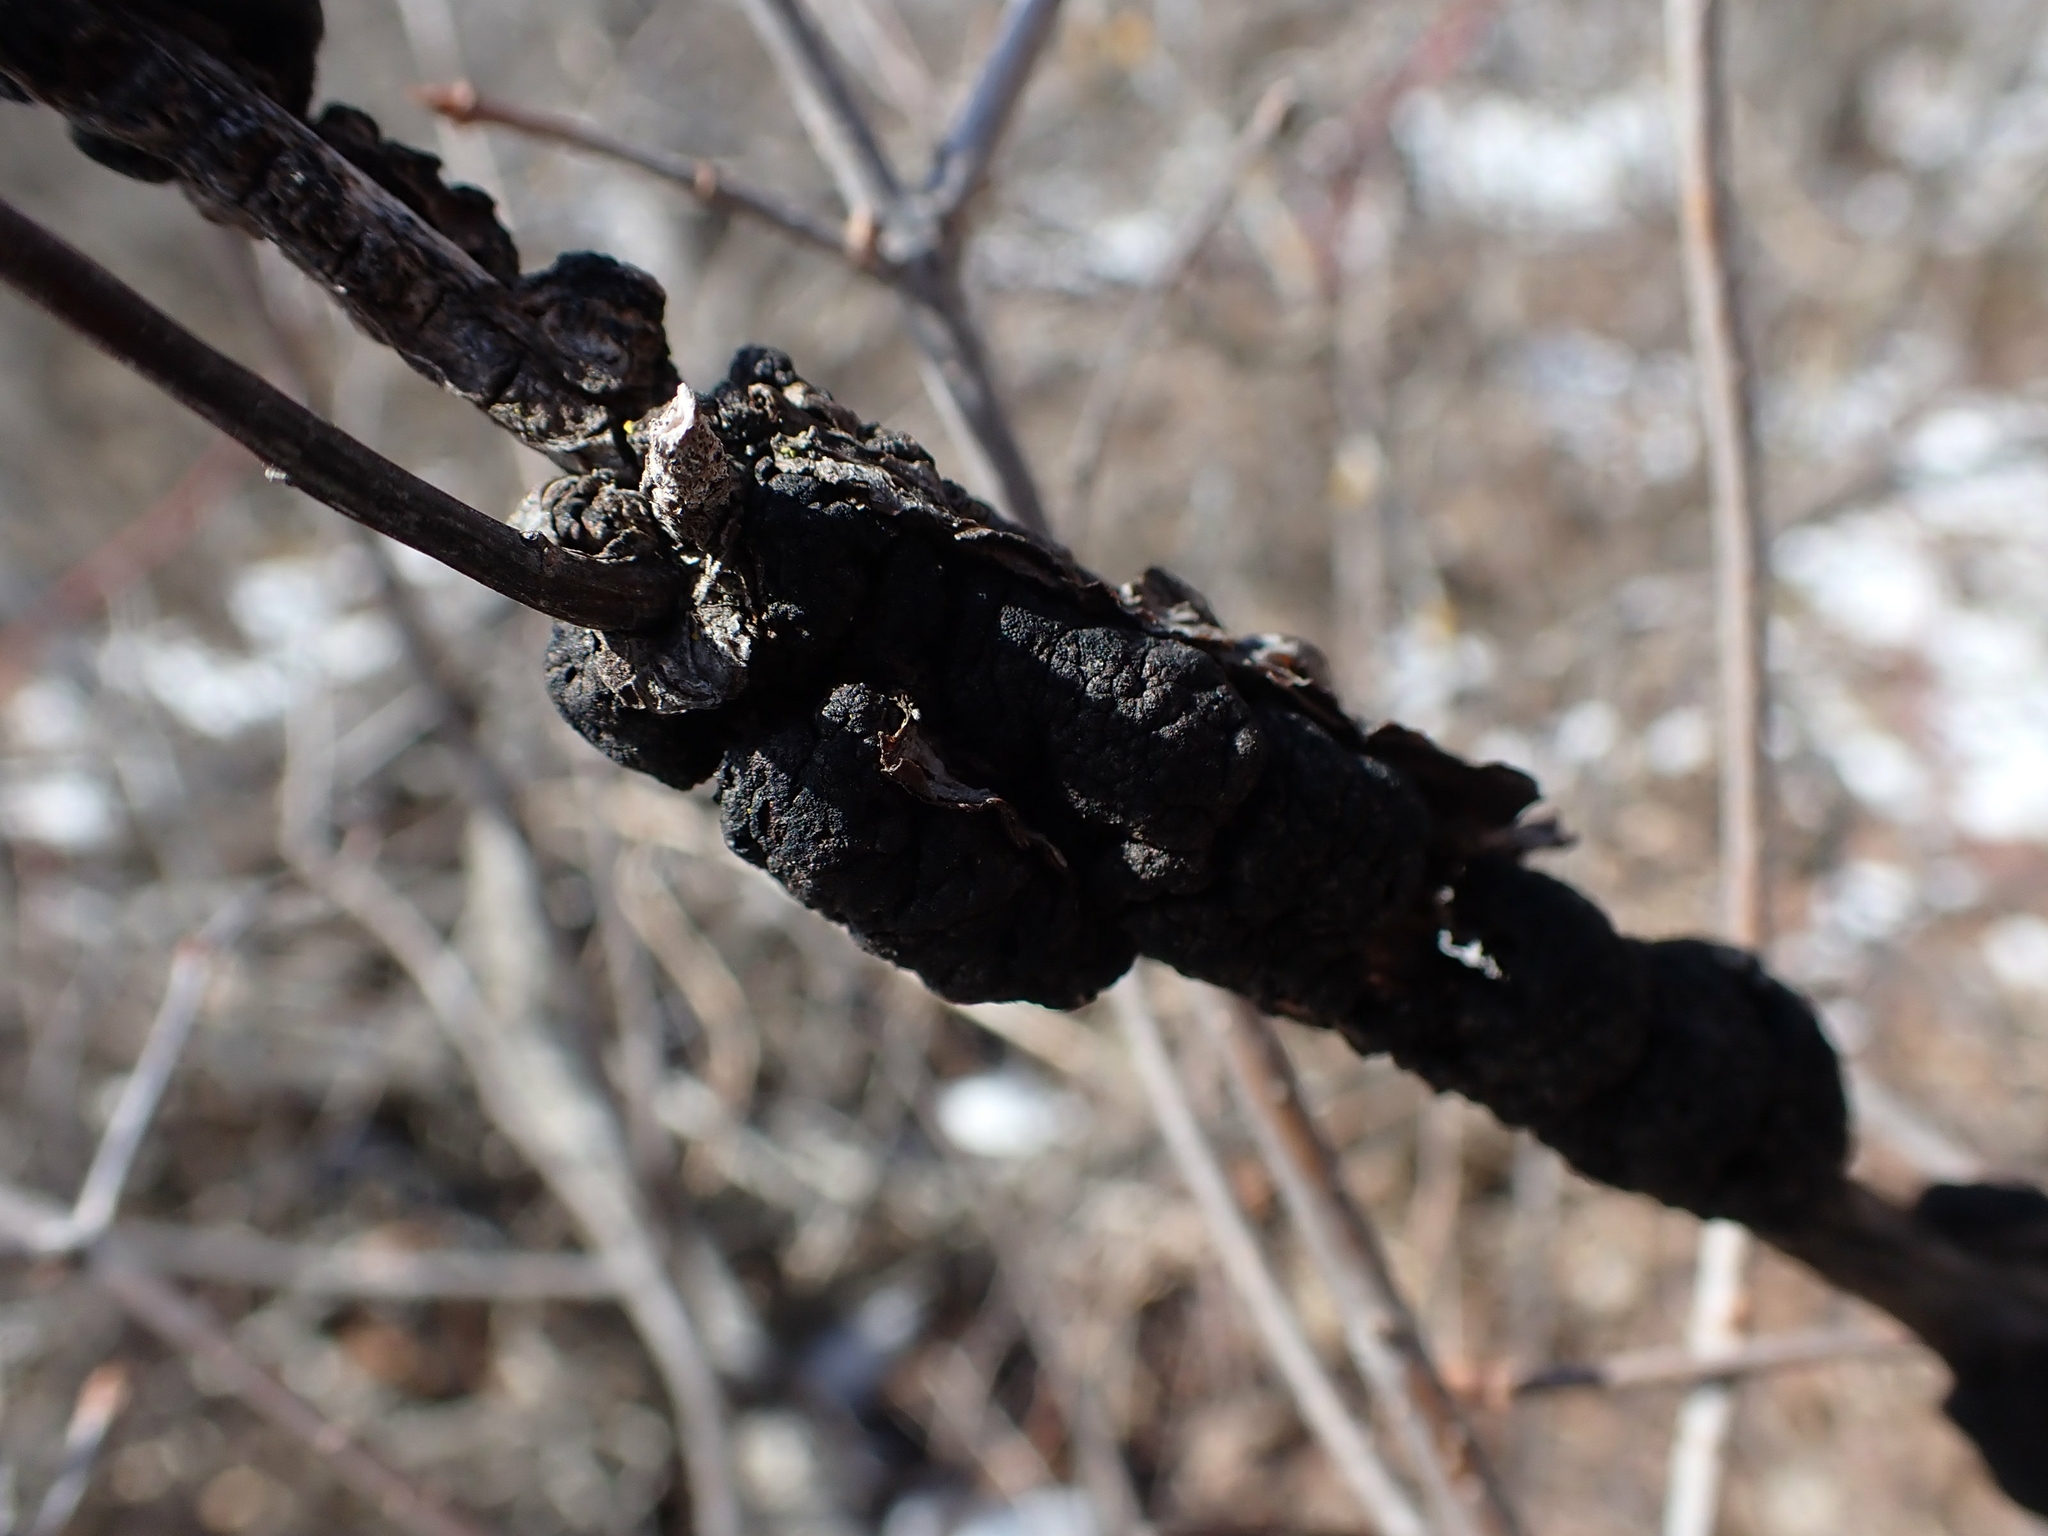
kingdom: Fungi
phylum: Ascomycota
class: Dothideomycetes
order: Venturiales
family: Venturiaceae
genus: Apiosporina
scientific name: Apiosporina morbosa
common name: Black knot
